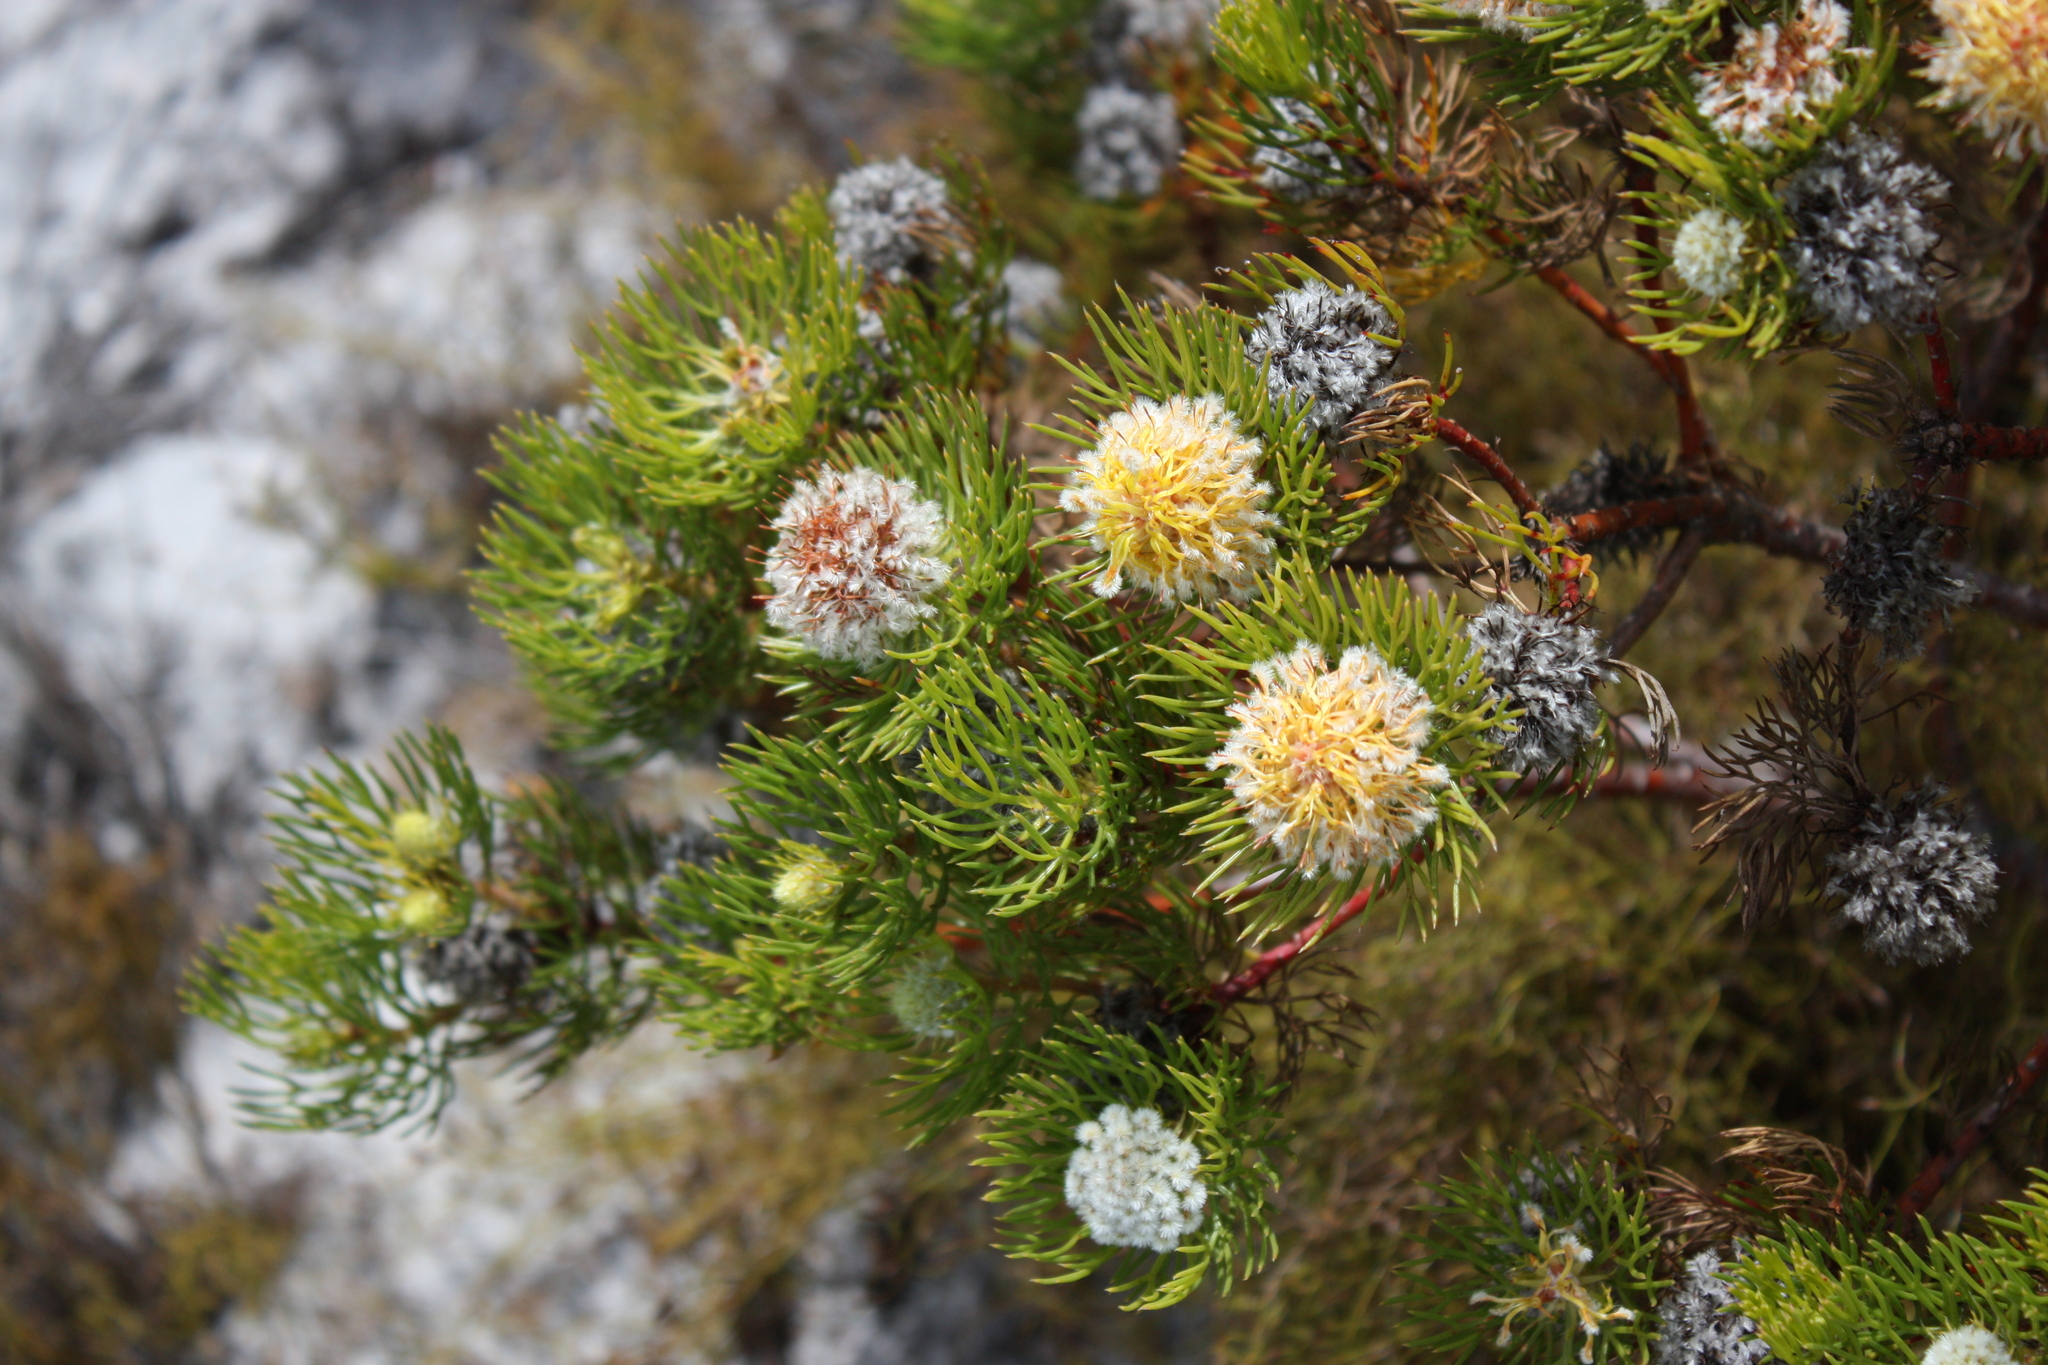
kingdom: Plantae
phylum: Tracheophyta
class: Magnoliopsida
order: Proteales
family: Proteaceae
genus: Serruria
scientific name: Serruria villosa
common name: Golden spiderhead
